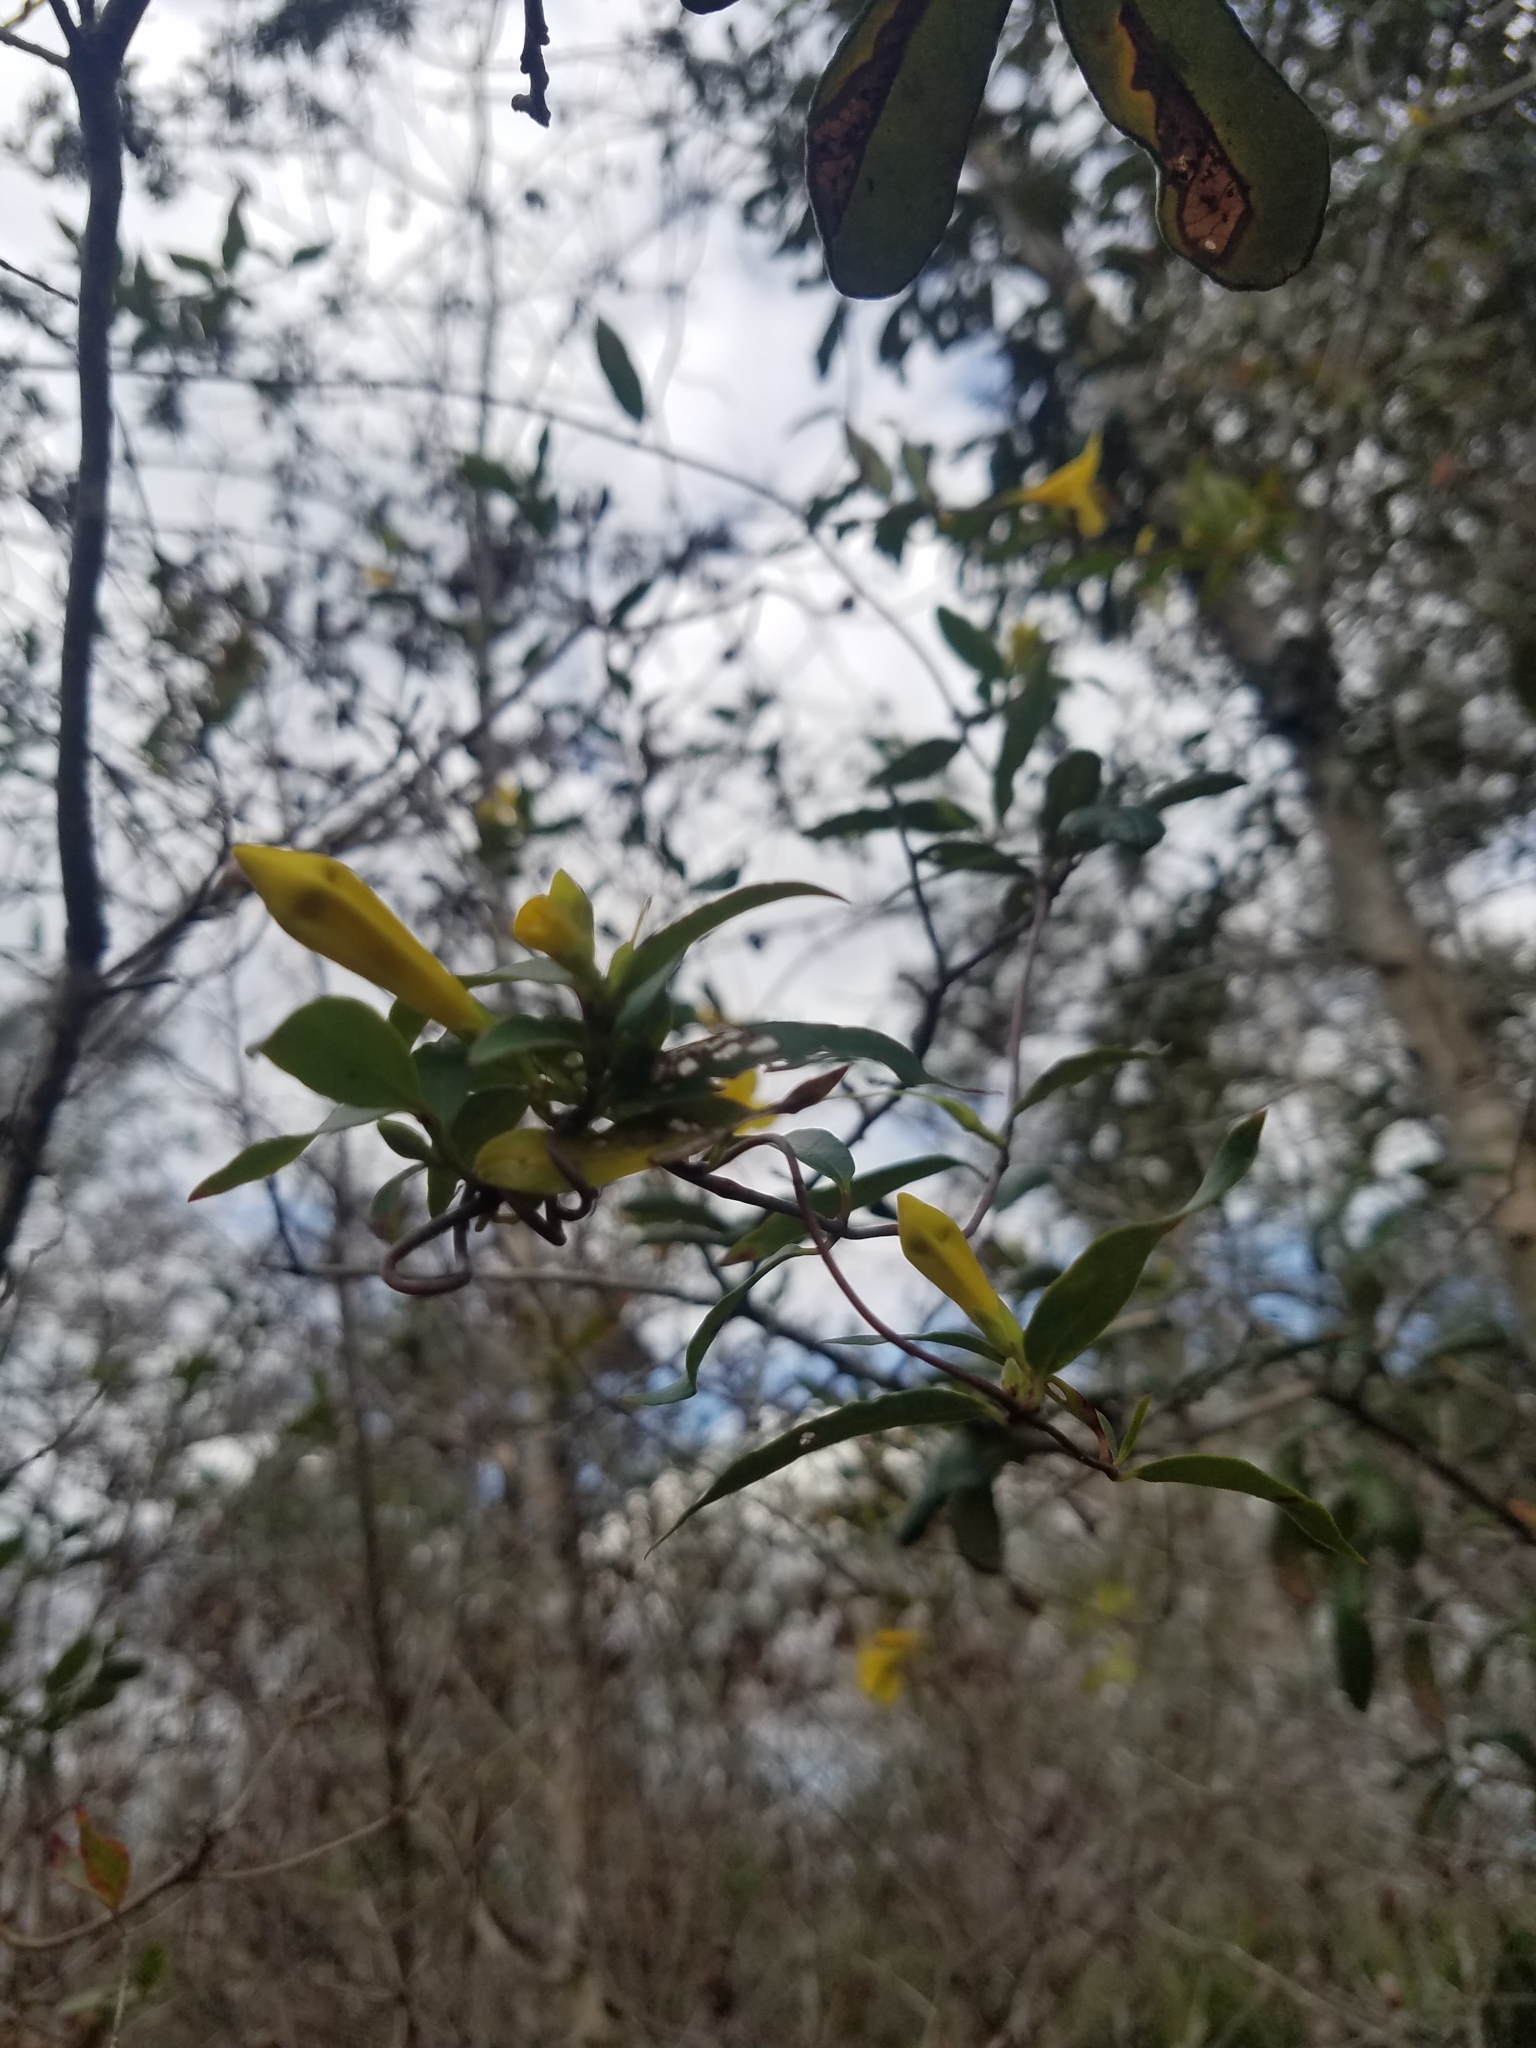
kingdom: Plantae
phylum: Tracheophyta
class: Magnoliopsida
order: Gentianales
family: Gelsemiaceae
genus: Gelsemium
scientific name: Gelsemium sempervirens
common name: Carolina-jasmine
